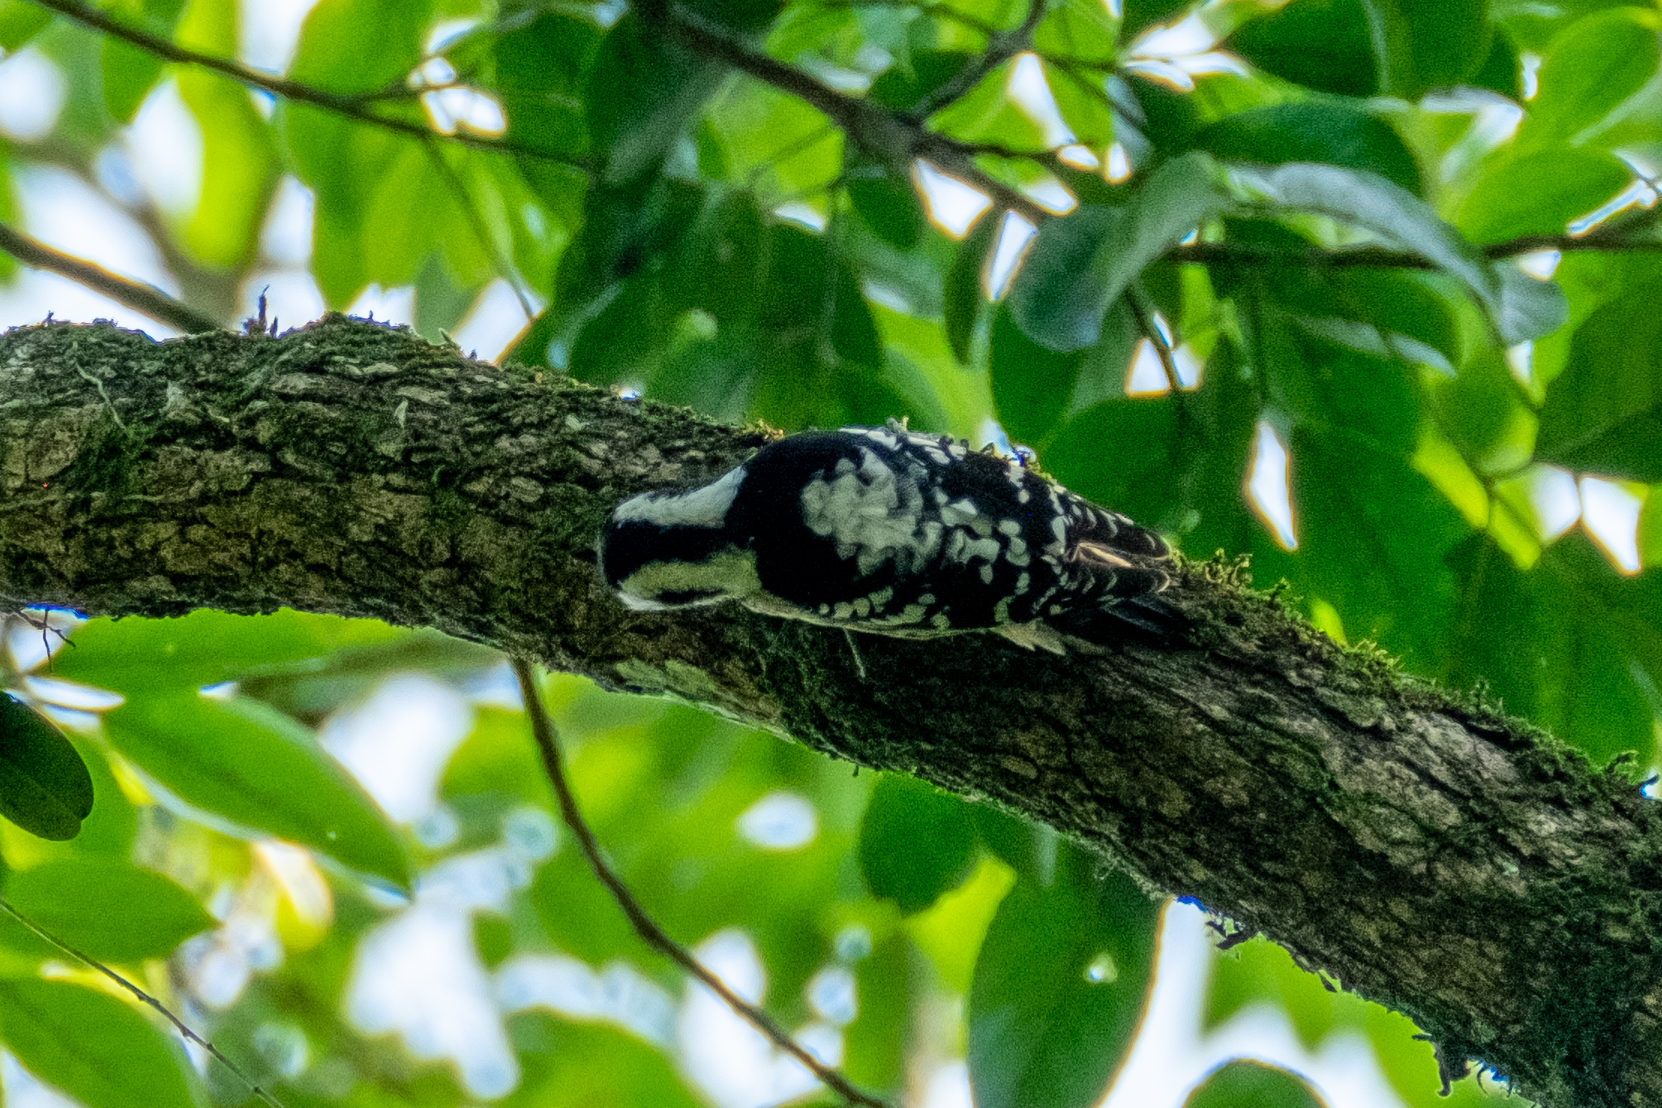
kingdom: Animalia
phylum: Chordata
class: Aves
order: Piciformes
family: Picidae
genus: Yungipicus
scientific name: Yungipicus canicapillus
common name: Grey-capped pygmy woodpecker
